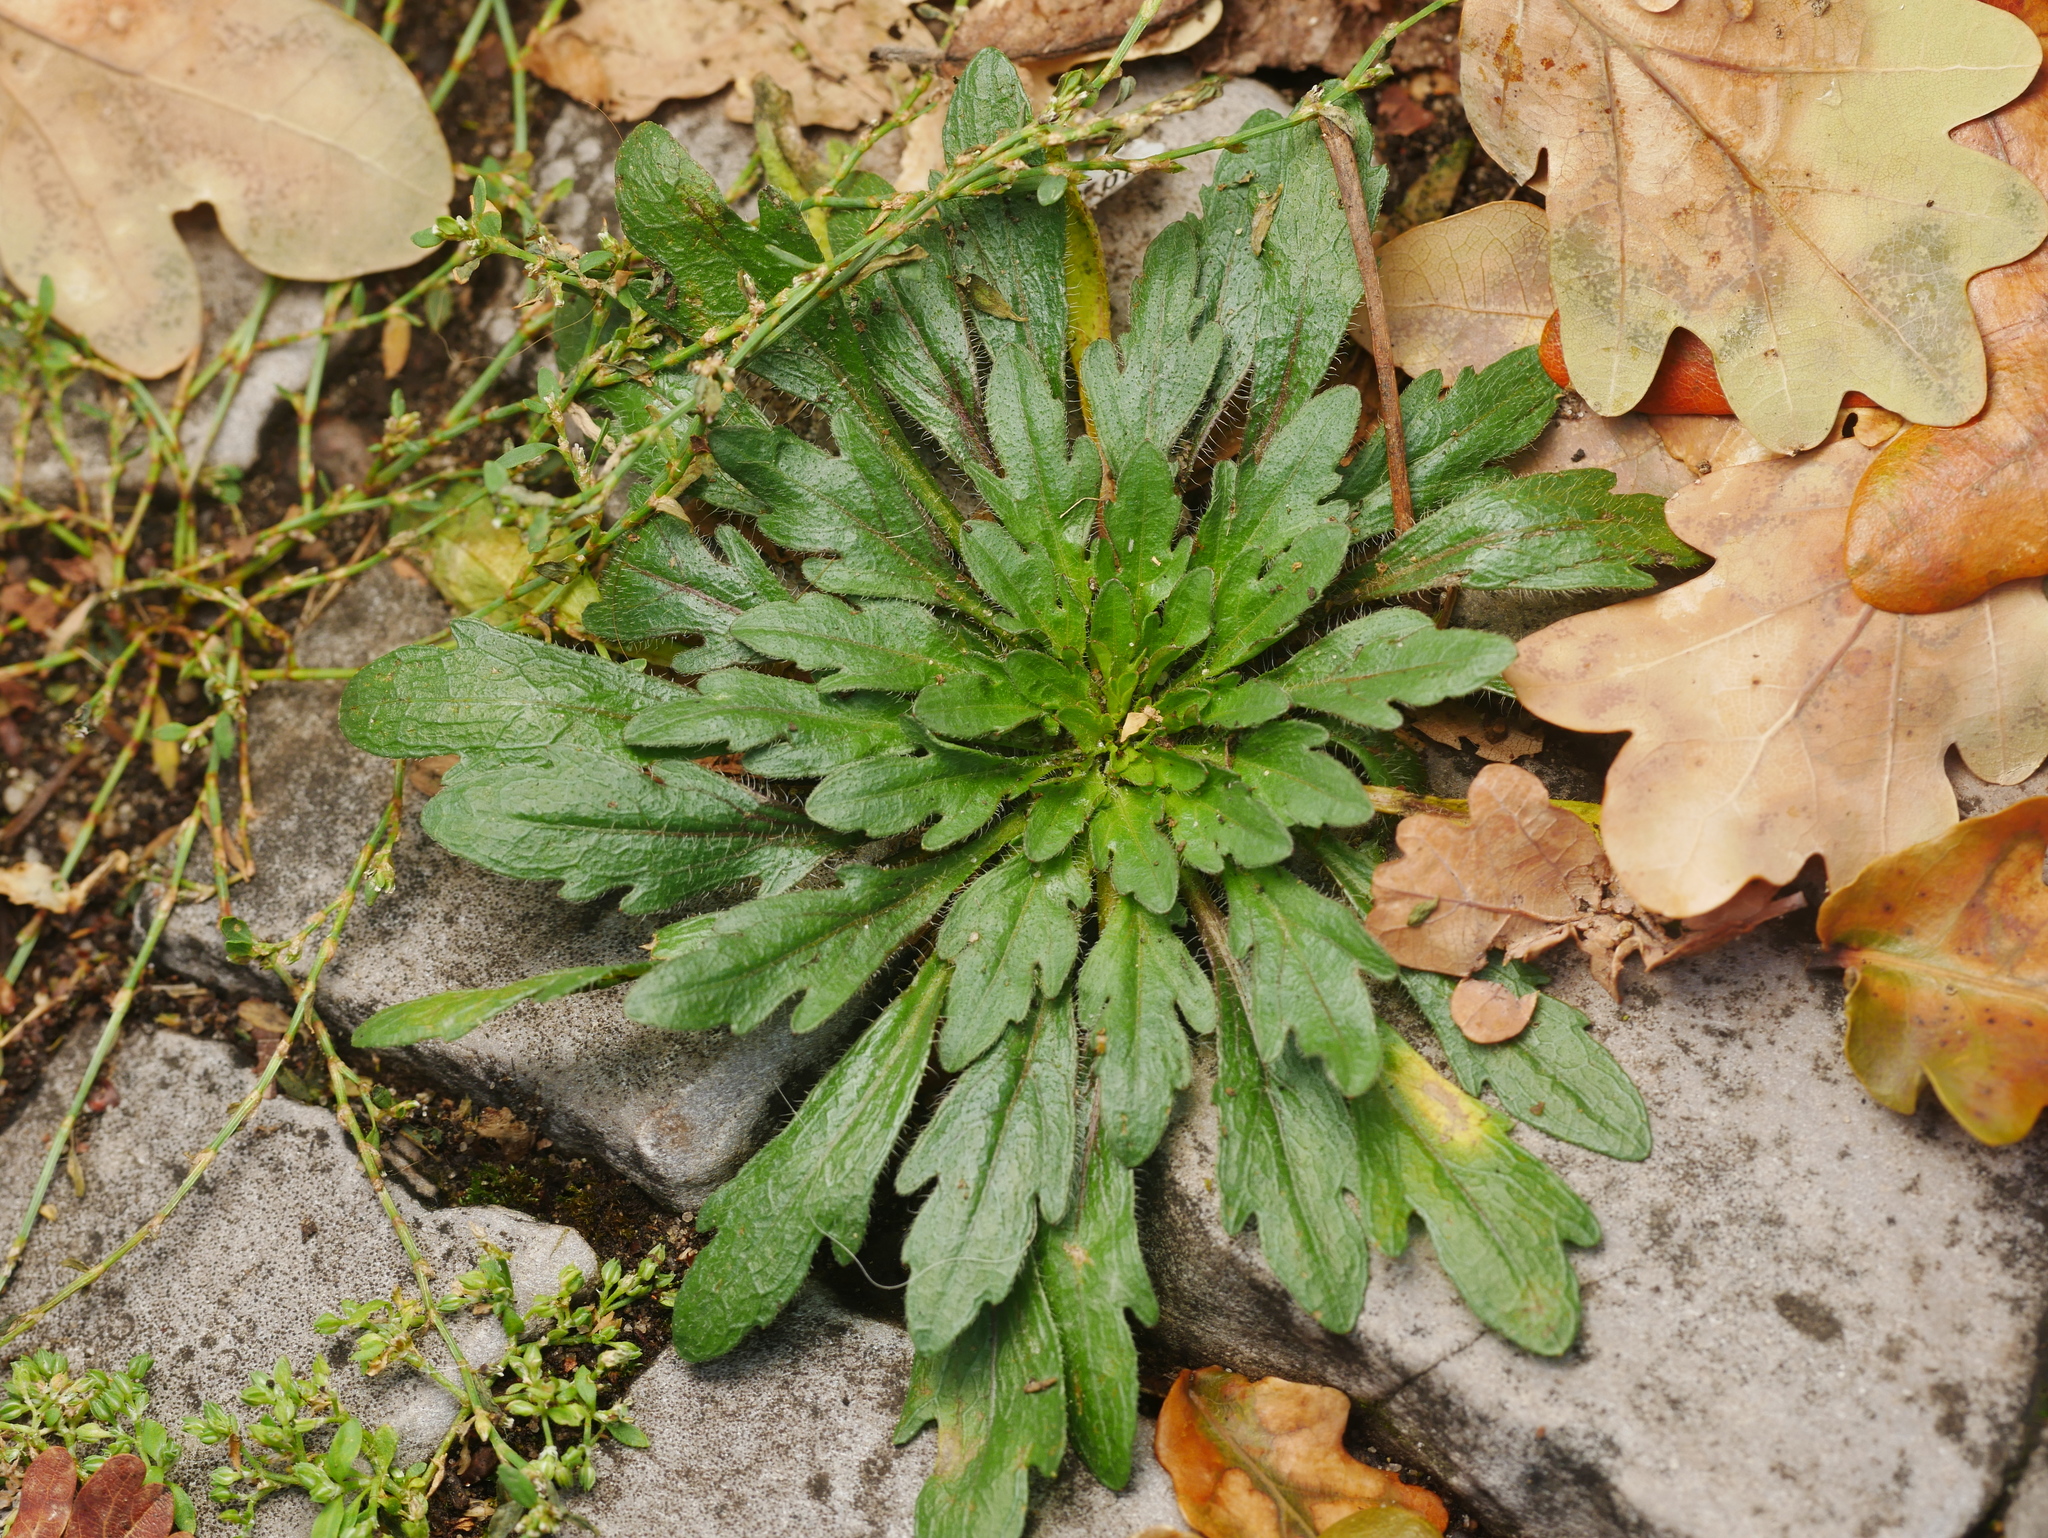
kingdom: Plantae
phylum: Tracheophyta
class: Magnoliopsida
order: Asterales
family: Asteraceae
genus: Erigeron
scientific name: Erigeron canadensis
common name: Canadian fleabane
